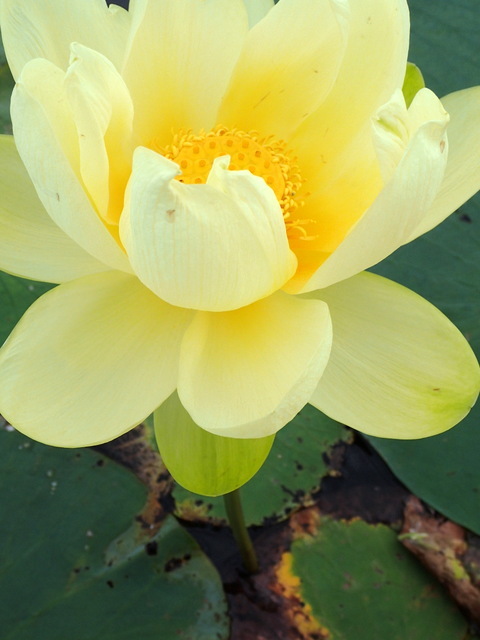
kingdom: Plantae
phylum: Tracheophyta
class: Magnoliopsida
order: Proteales
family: Nelumbonaceae
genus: Nelumbo
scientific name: Nelumbo lutea
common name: American lotus
